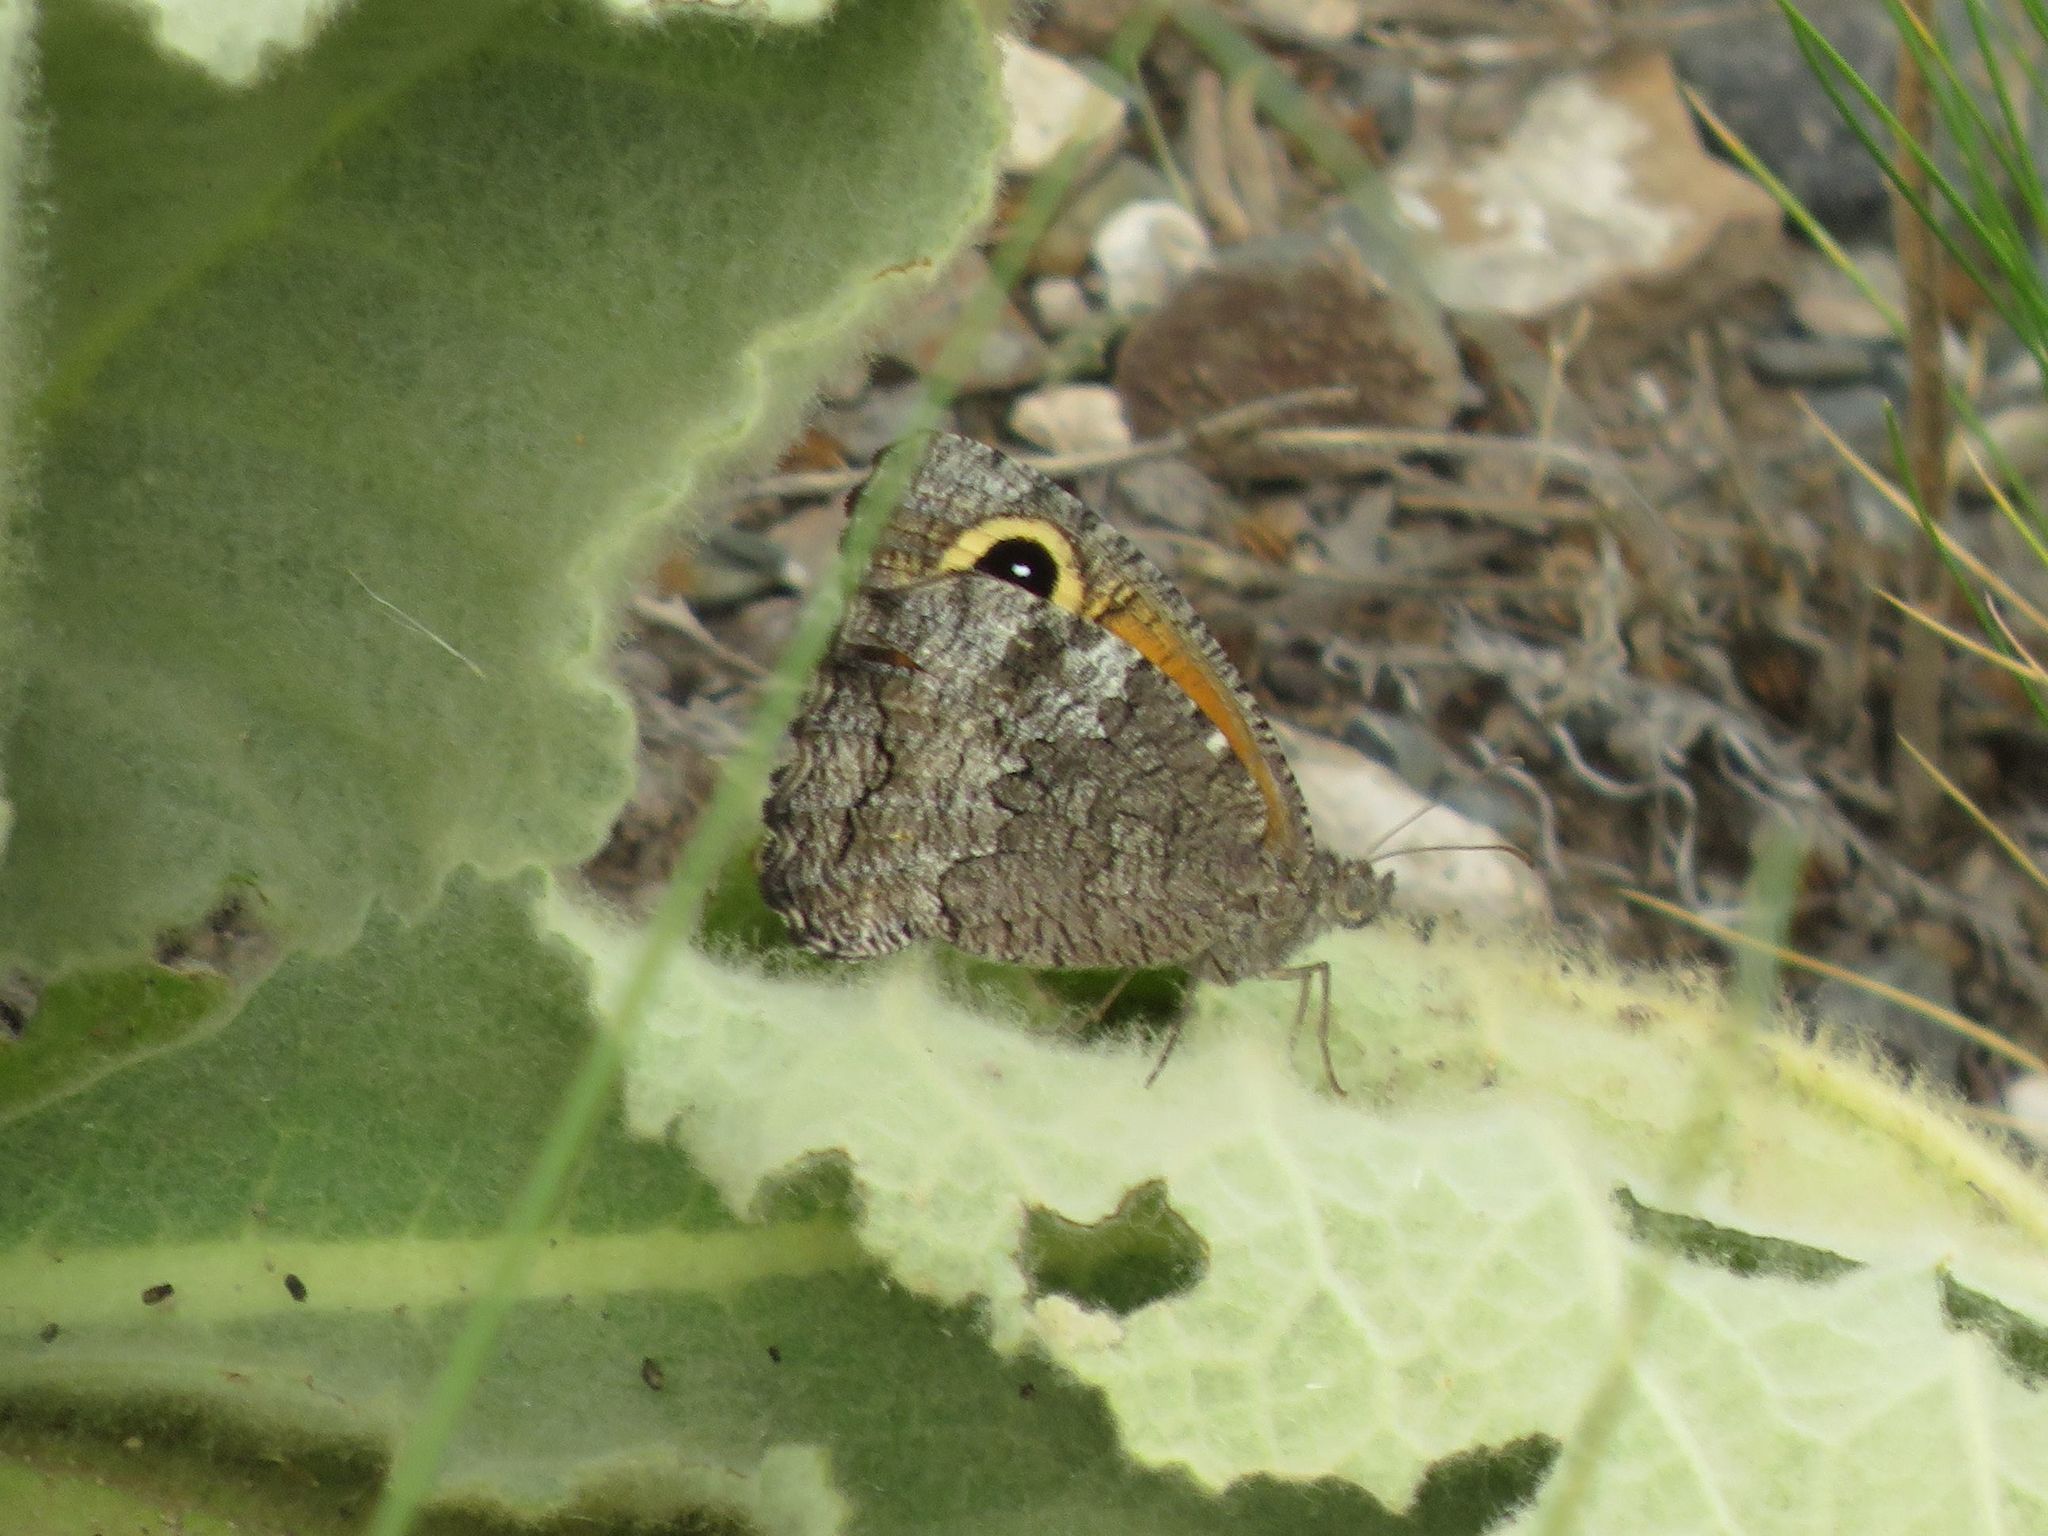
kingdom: Animalia
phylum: Arthropoda
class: Insecta
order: Lepidoptera
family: Nymphalidae
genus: Haywardella
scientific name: Haywardella edmondsii
